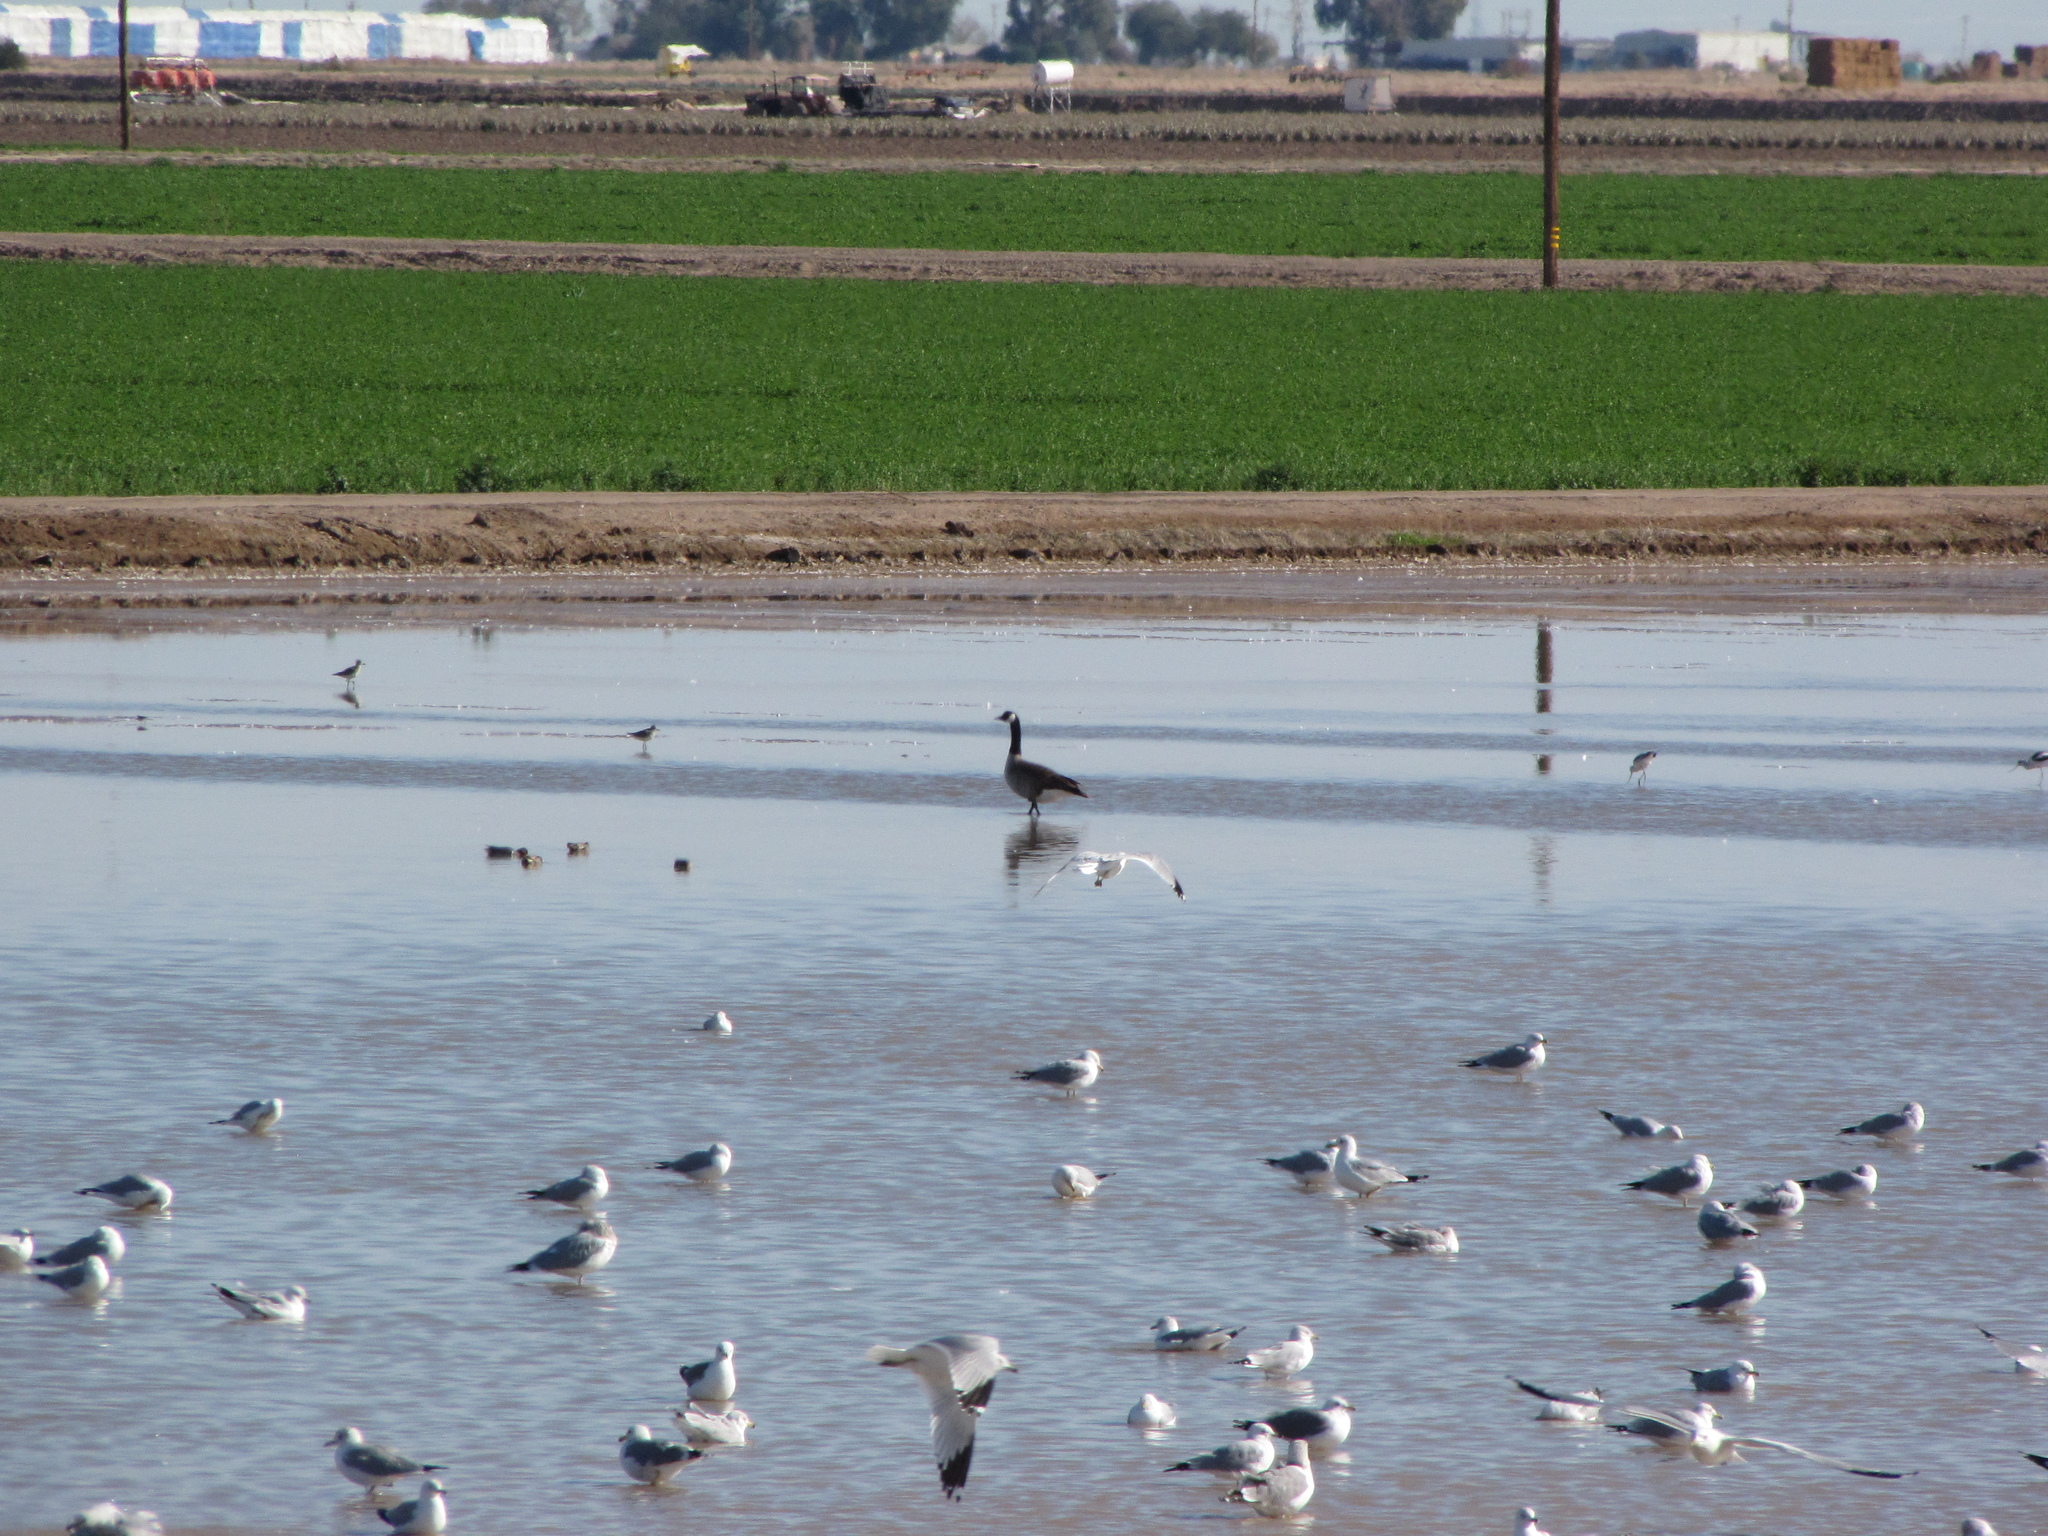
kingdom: Animalia
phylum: Chordata
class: Aves
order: Anseriformes
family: Anatidae
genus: Branta
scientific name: Branta canadensis
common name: Canada goose
